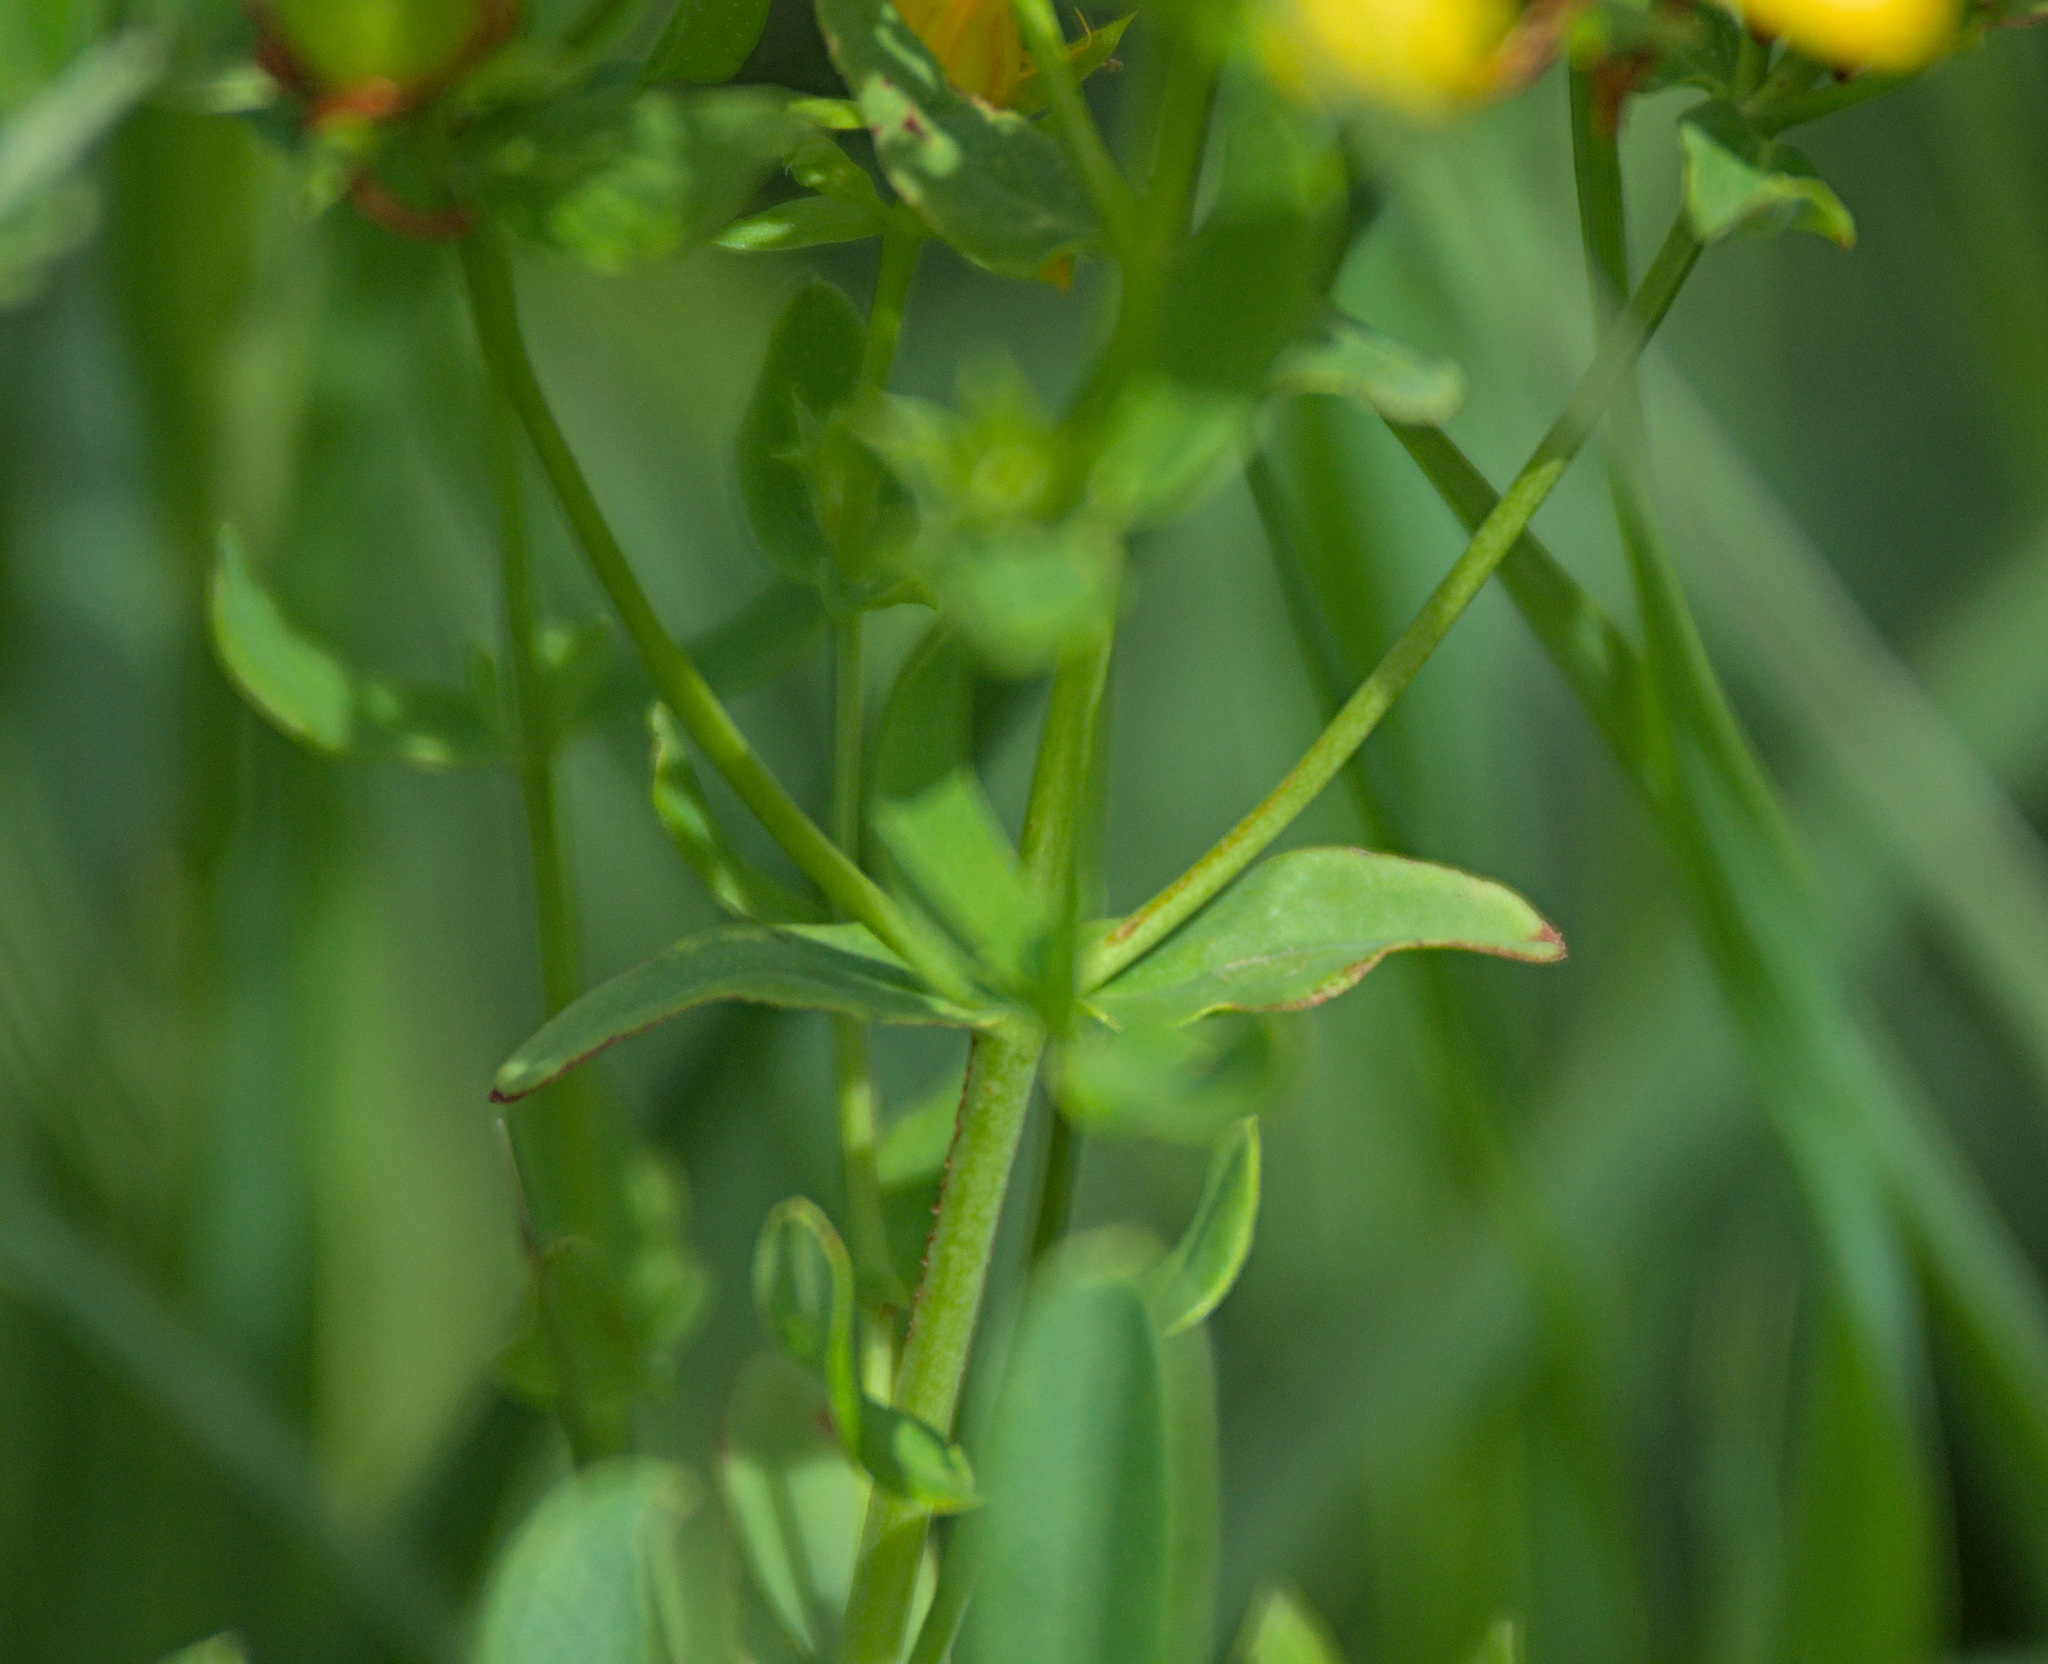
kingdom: Plantae
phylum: Tracheophyta
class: Magnoliopsida
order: Malpighiales
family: Hypericaceae
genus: Hypericum
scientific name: Hypericum perforatum
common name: Common st. johnswort
